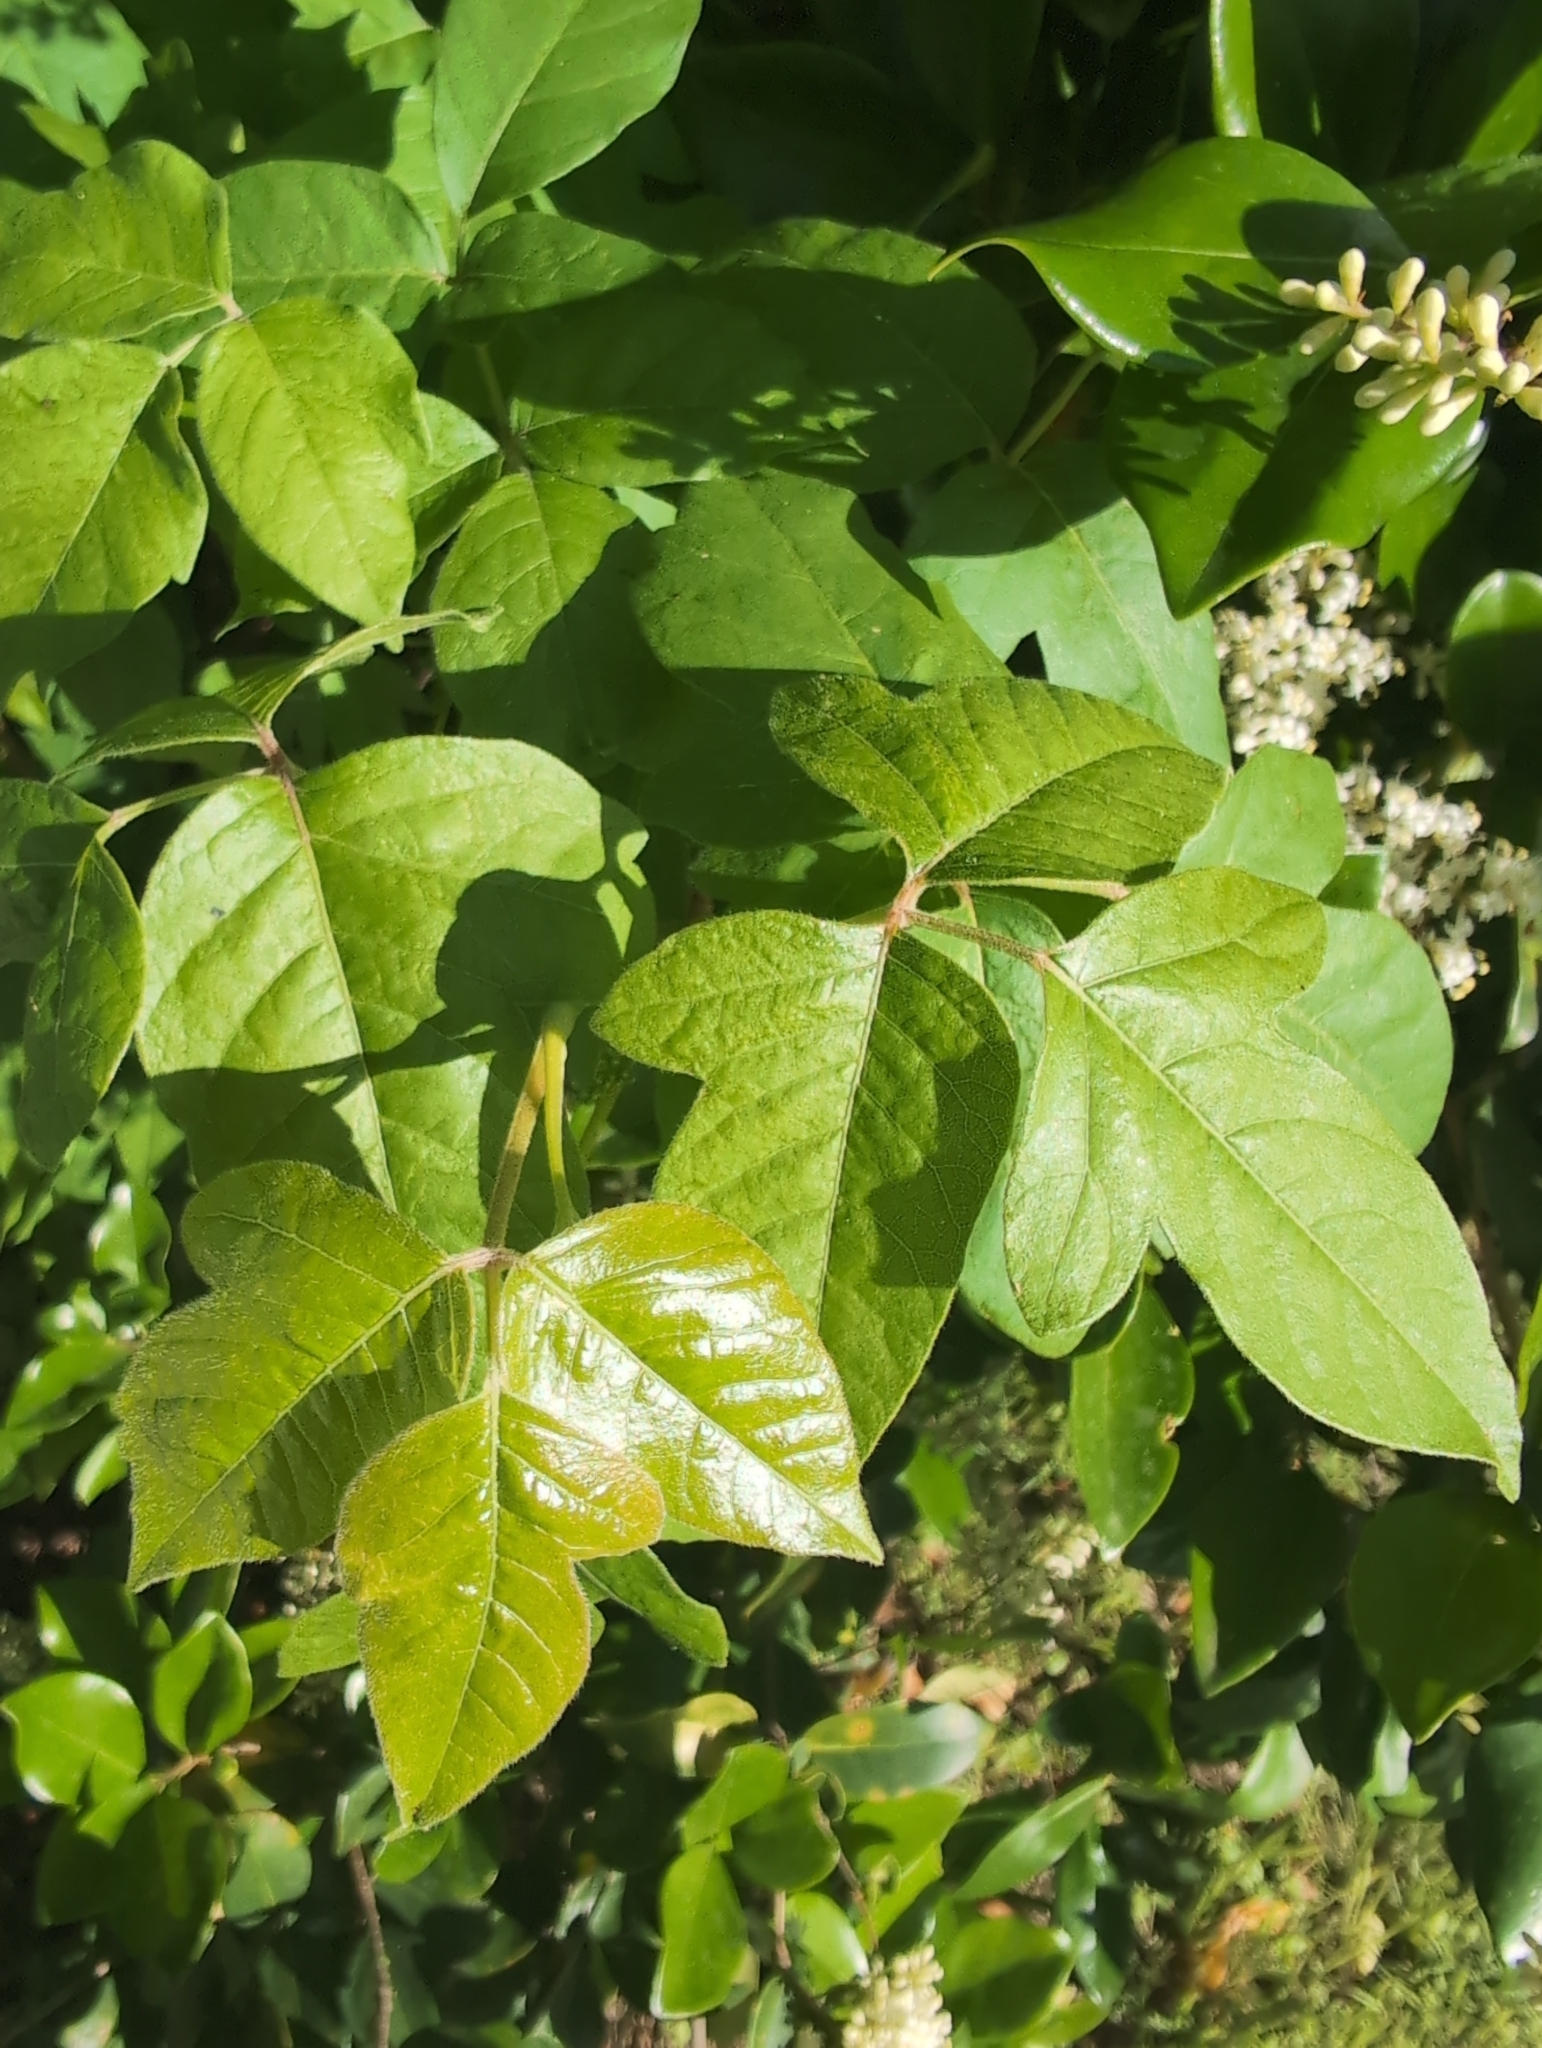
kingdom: Plantae
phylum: Tracheophyta
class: Magnoliopsida
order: Sapindales
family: Anacardiaceae
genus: Toxicodendron
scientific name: Toxicodendron radicans
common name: Poison ivy
